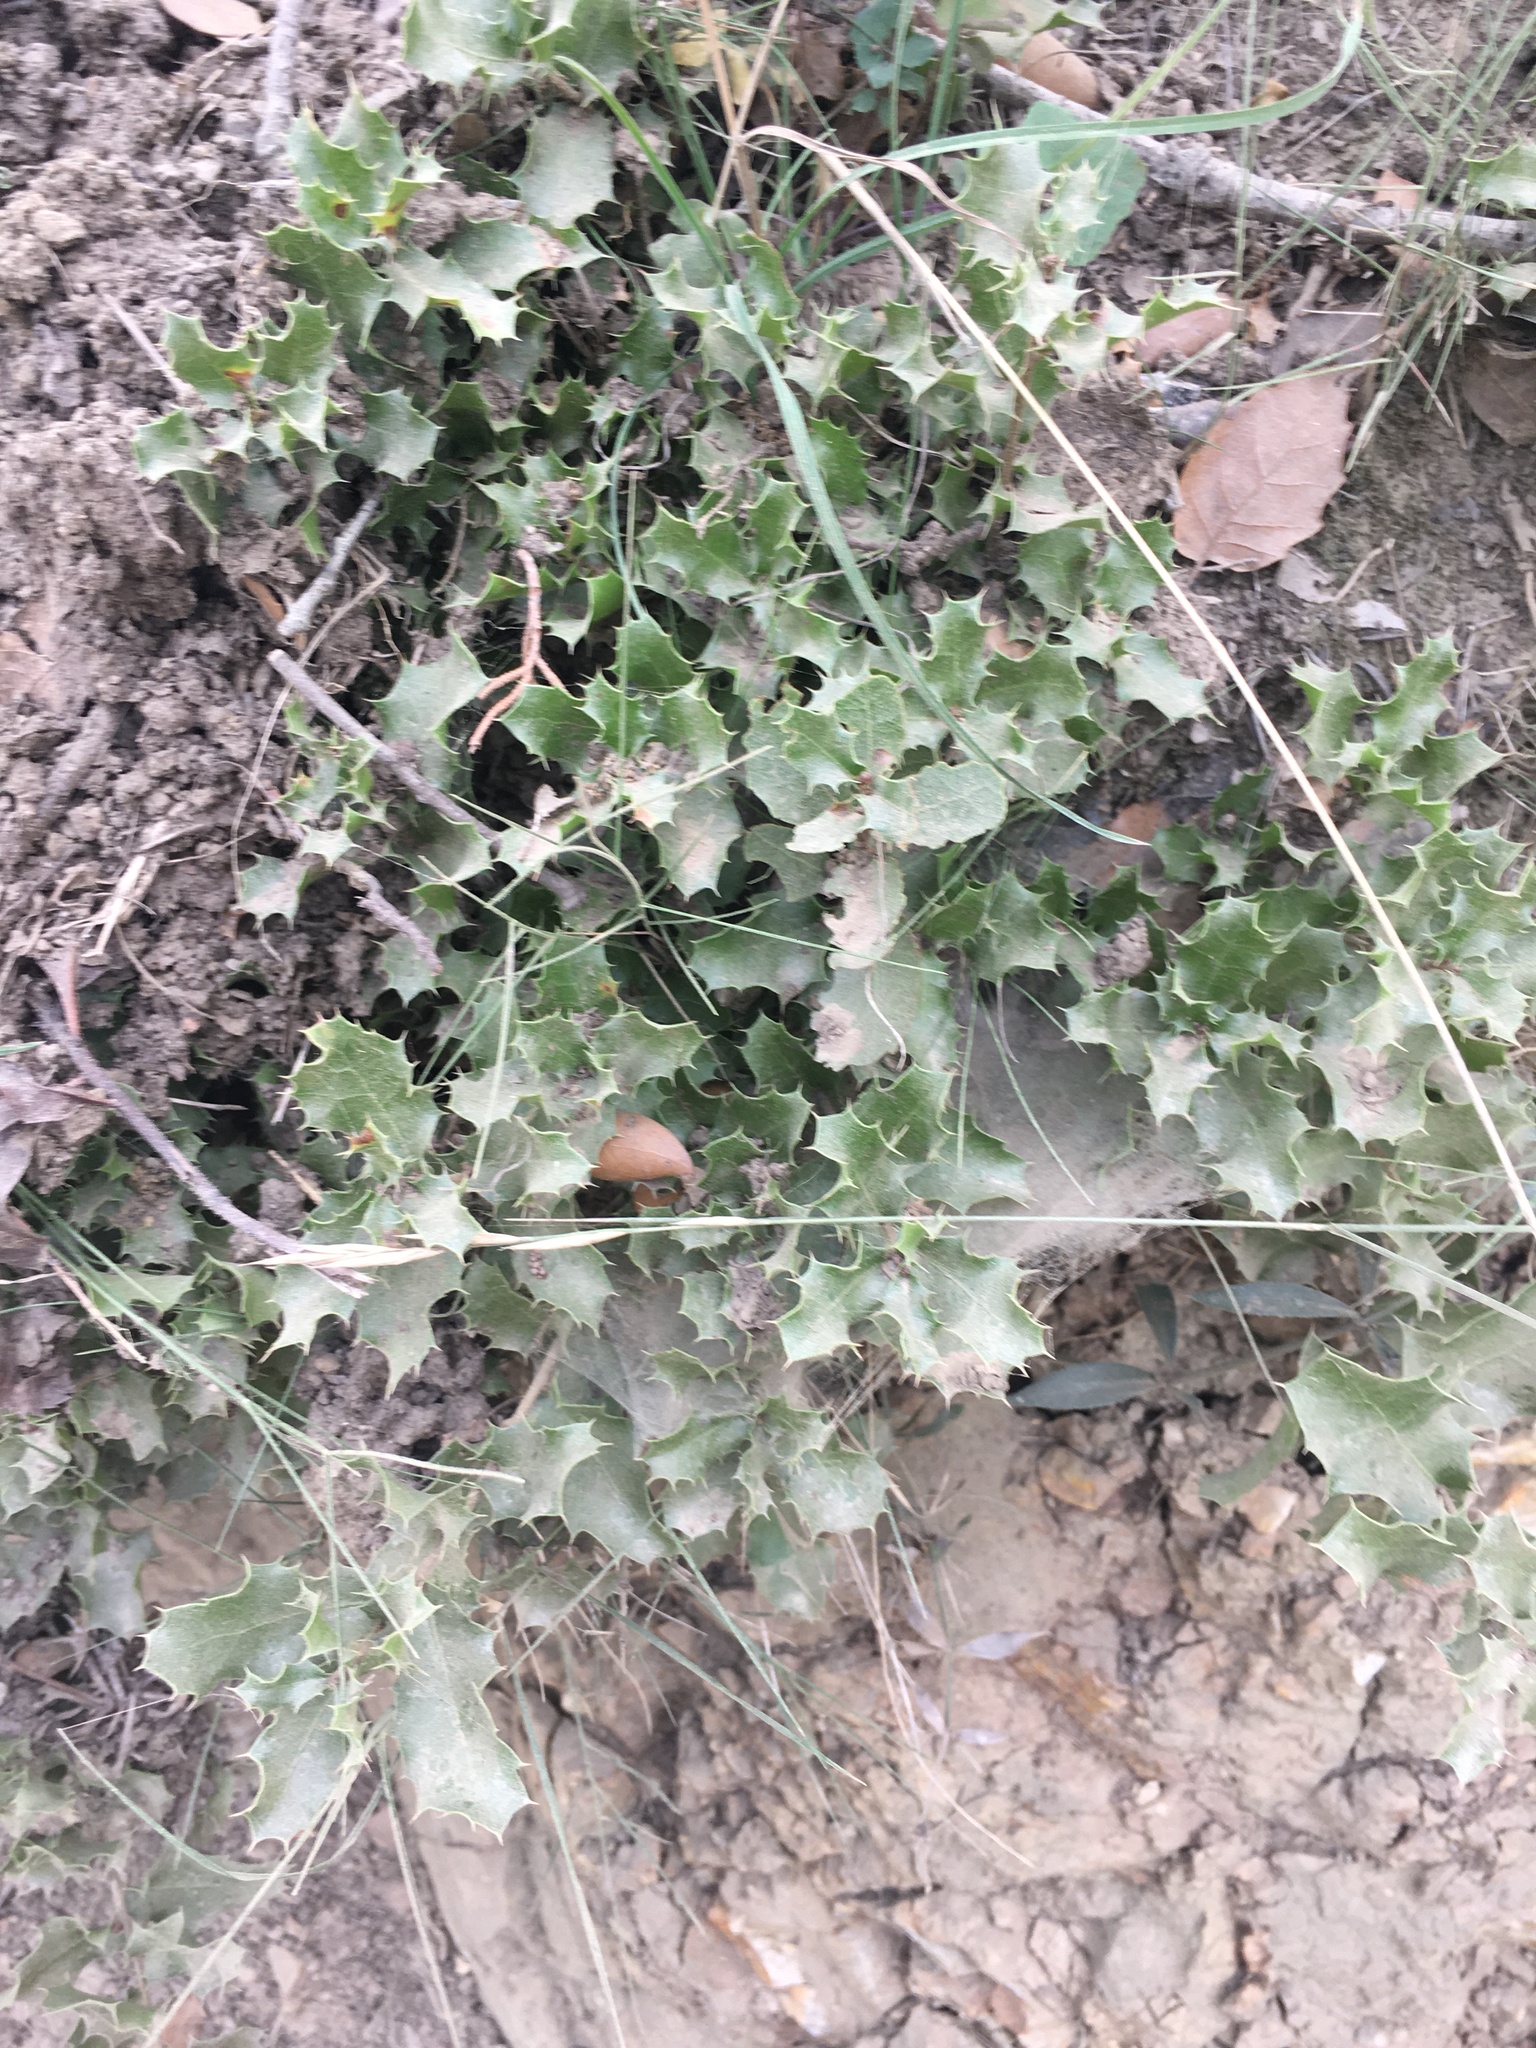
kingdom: Plantae
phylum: Tracheophyta
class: Magnoliopsida
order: Aquifoliales
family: Aquifoliaceae
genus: Ilex
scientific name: Ilex aquifolium
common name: English holly
